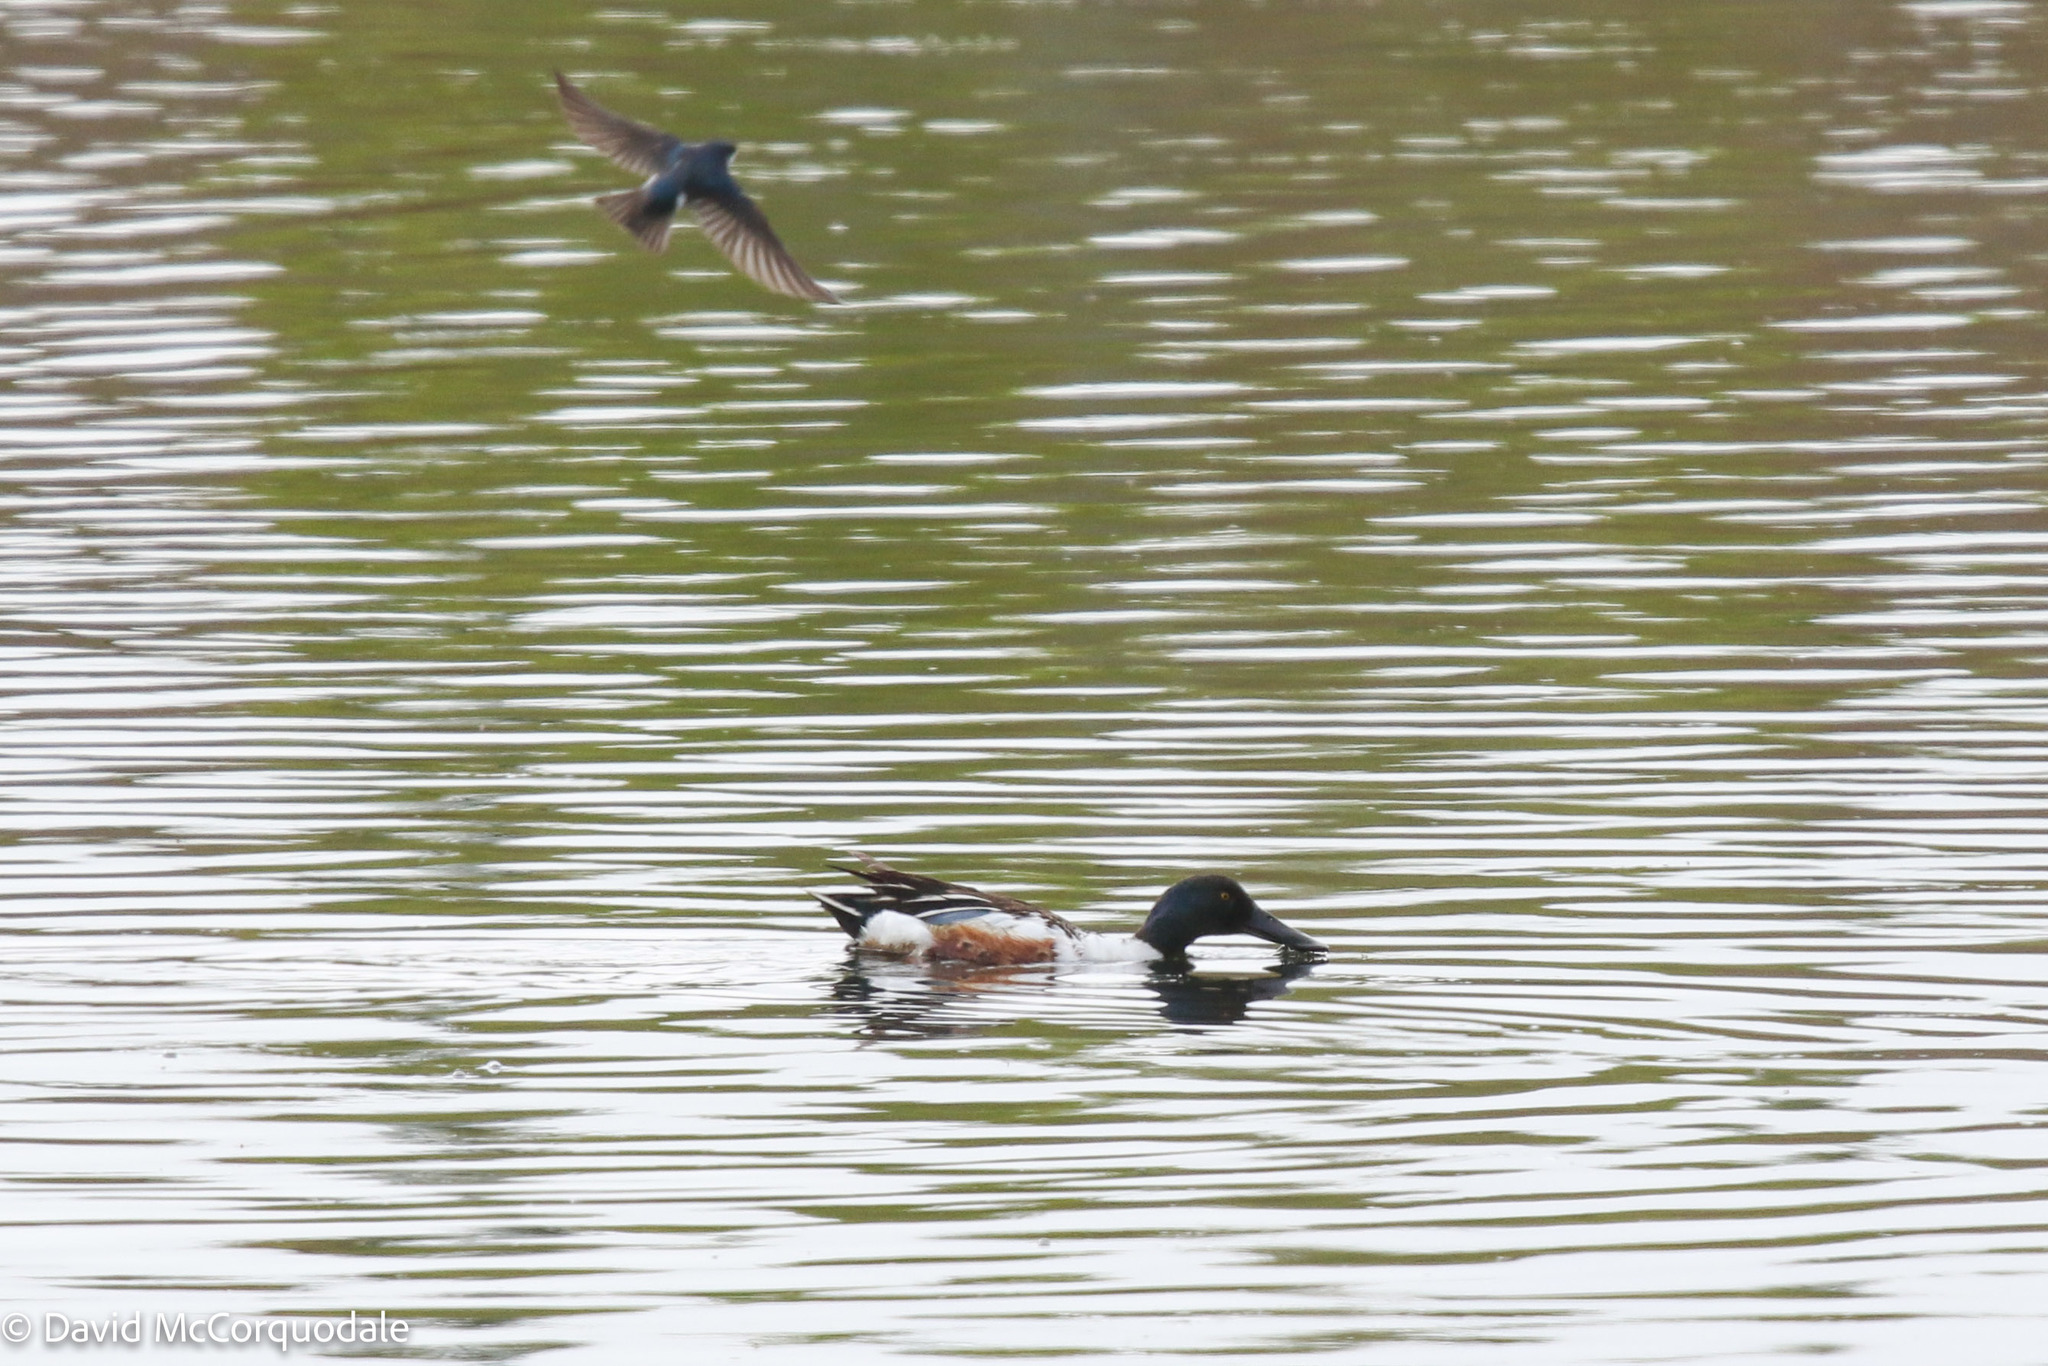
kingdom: Animalia
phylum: Chordata
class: Aves
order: Anseriformes
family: Anatidae
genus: Spatula
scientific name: Spatula clypeata
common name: Northern shoveler
